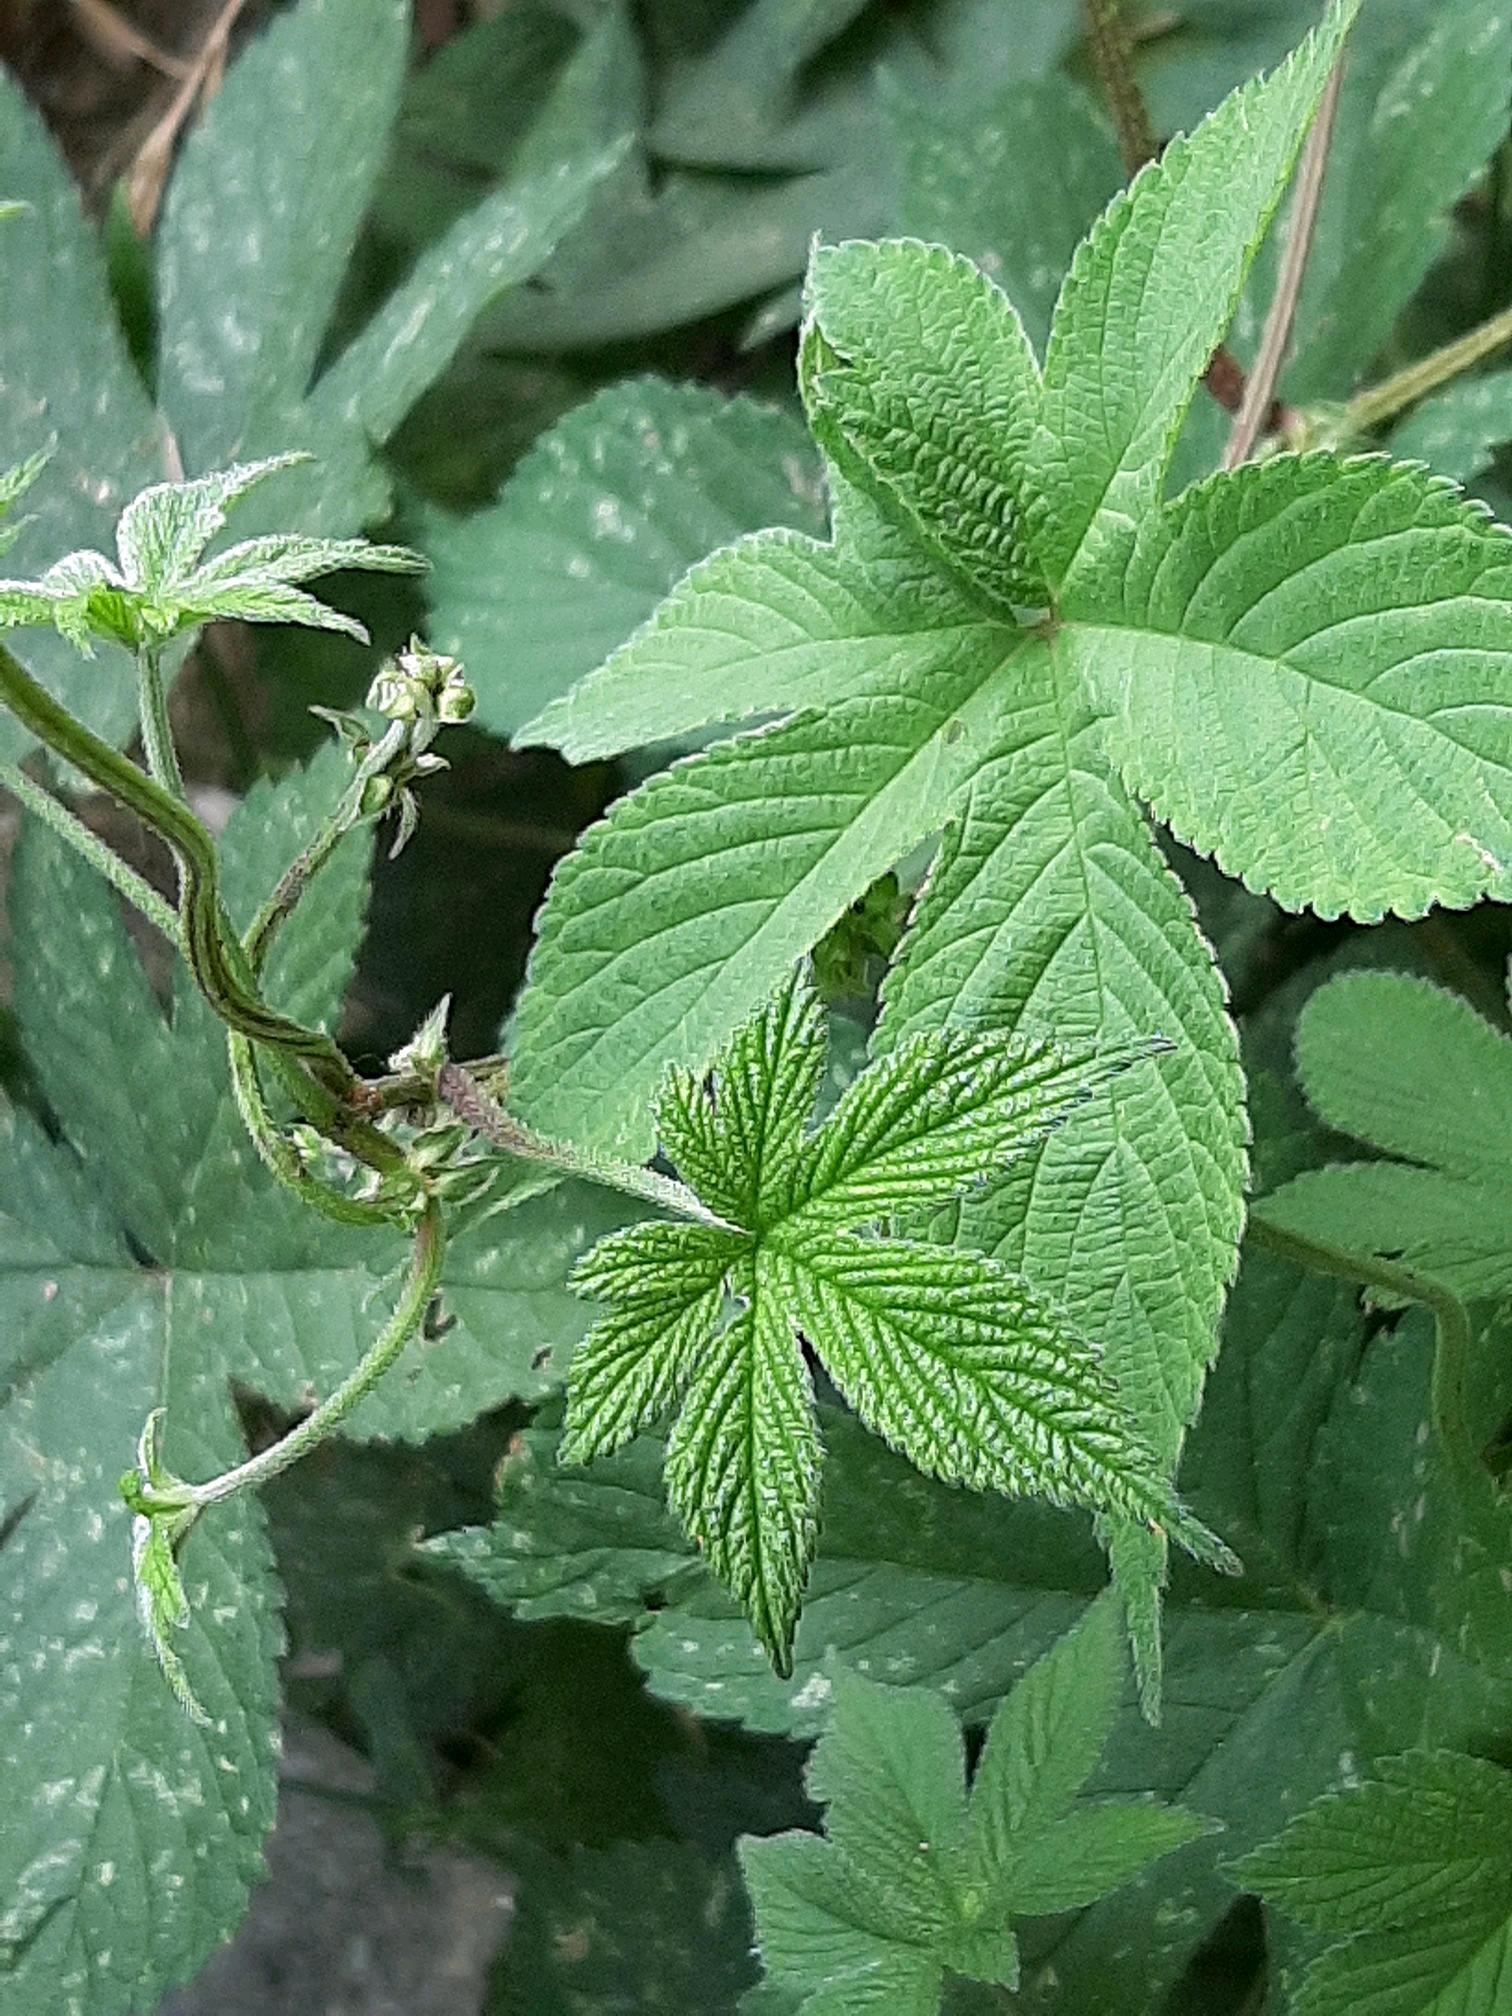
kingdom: Plantae
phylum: Tracheophyta
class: Magnoliopsida
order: Rosales
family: Cannabaceae
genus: Humulus
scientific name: Humulus scandens
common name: Japanese hop
